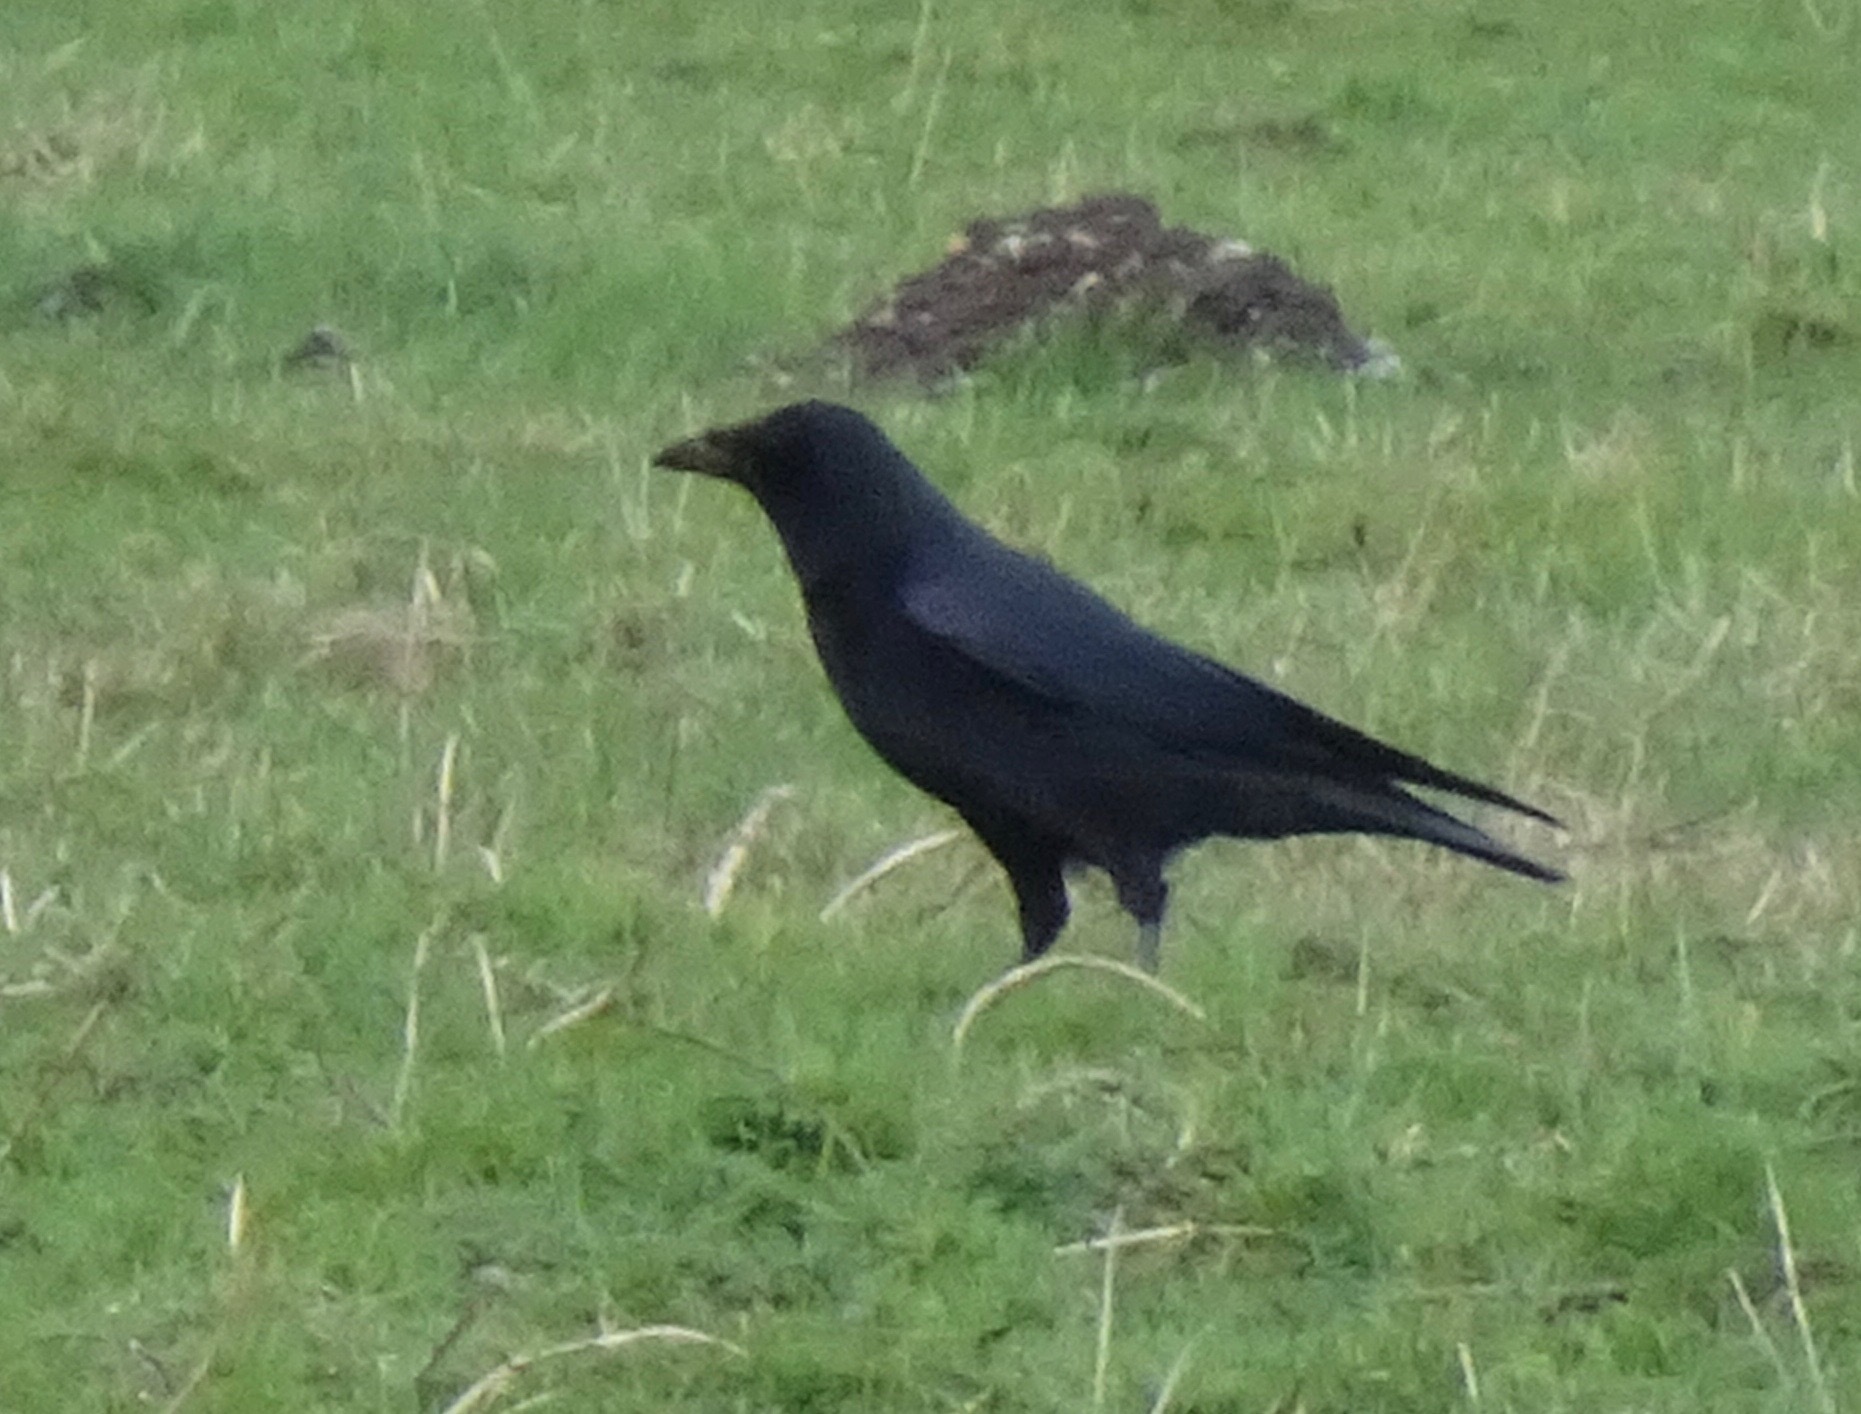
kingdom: Animalia
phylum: Chordata
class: Aves
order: Passeriformes
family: Corvidae
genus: Corvus
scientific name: Corvus corone
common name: Carrion crow
